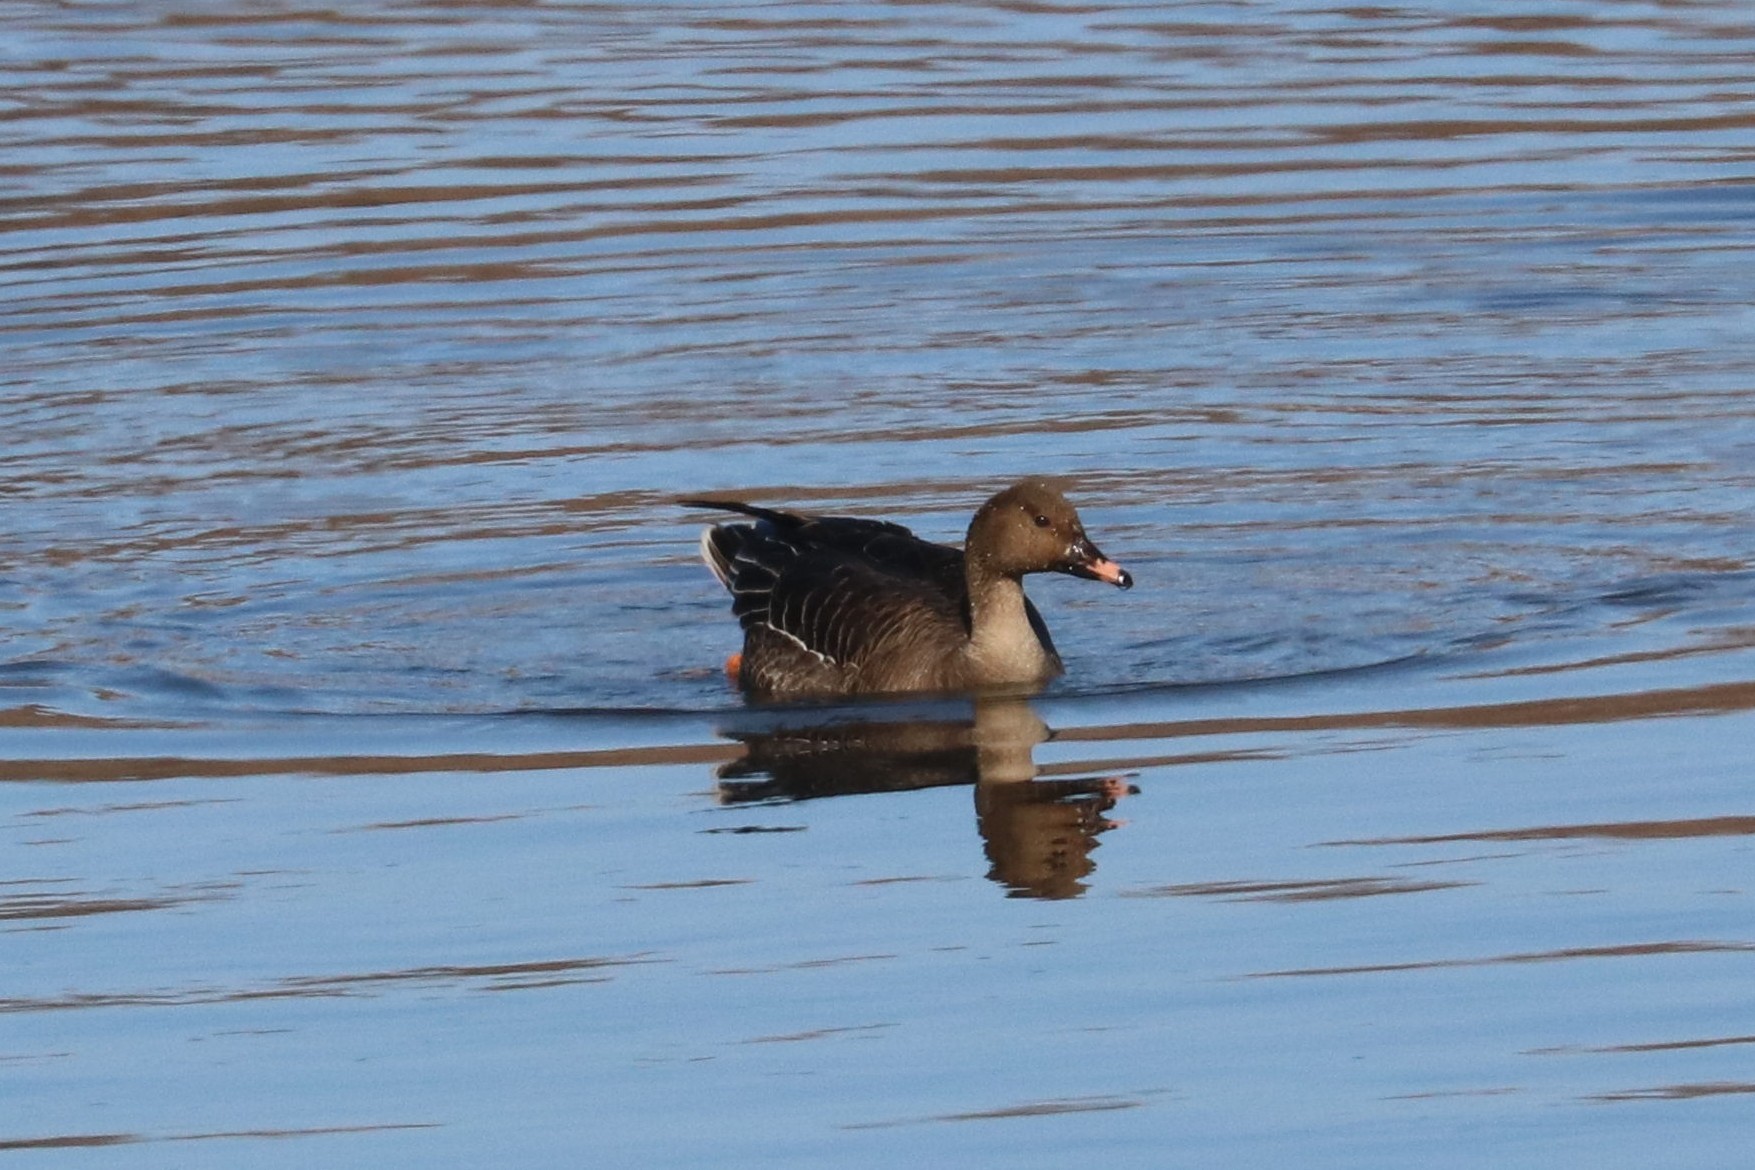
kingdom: Animalia
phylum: Chordata
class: Aves
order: Anseriformes
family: Anatidae
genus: Anser
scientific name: Anser fabalis
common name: Bean goose
